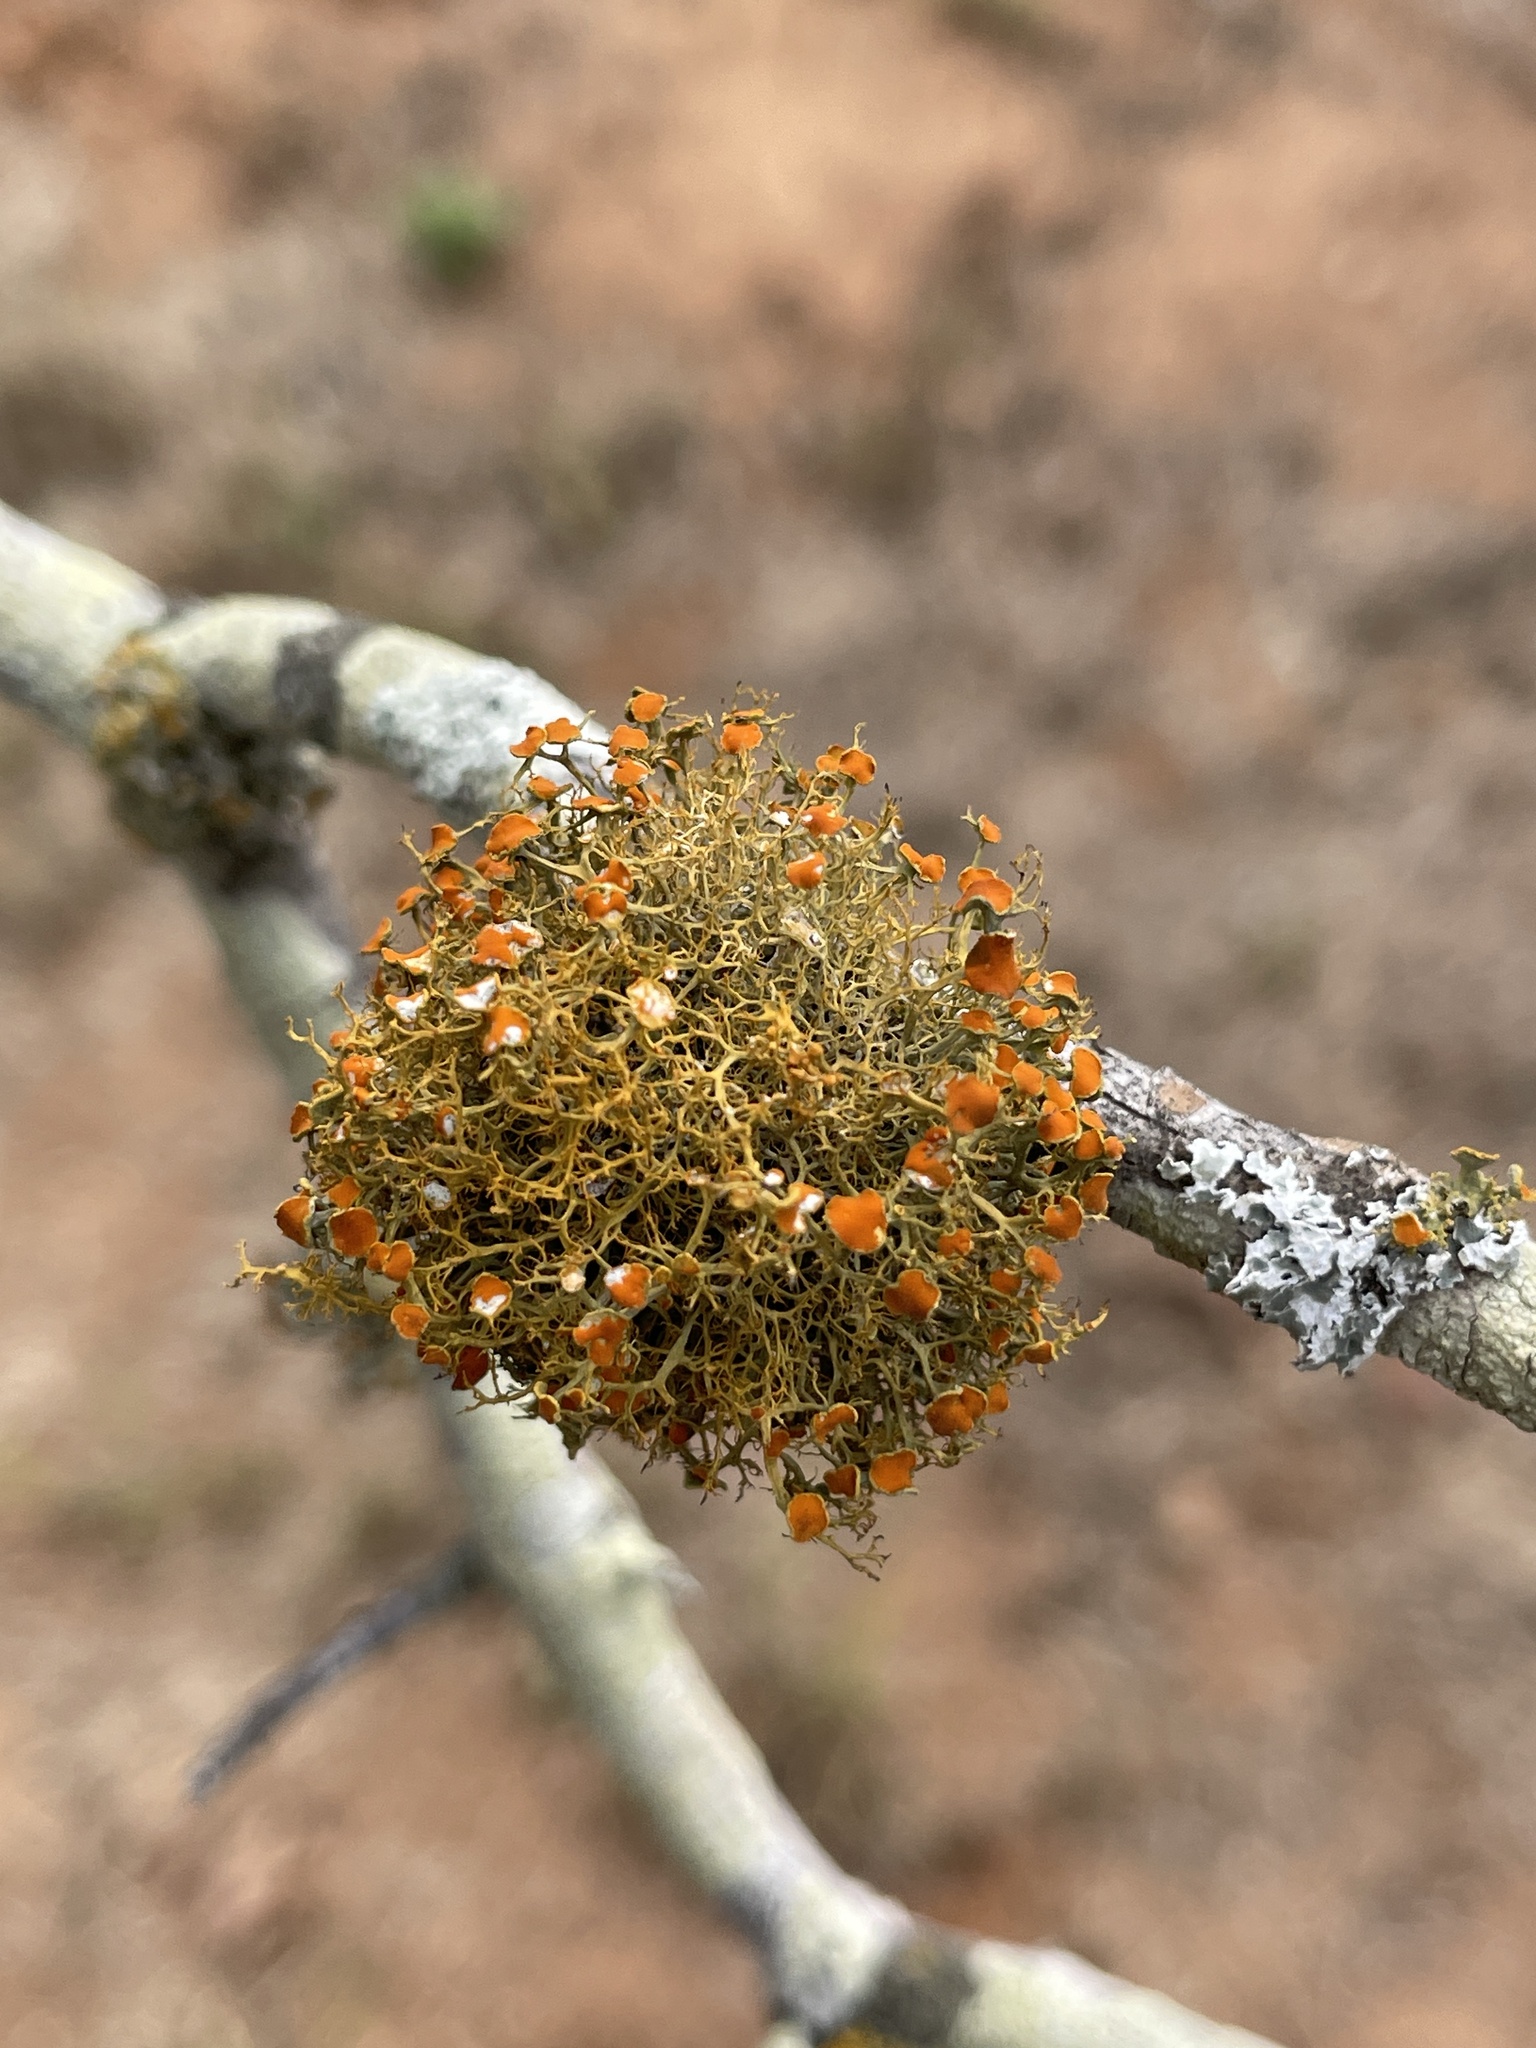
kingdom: Fungi
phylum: Ascomycota
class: Lecanoromycetes
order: Teloschistales
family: Teloschistaceae
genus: Teloschistes
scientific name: Teloschistes exilis
